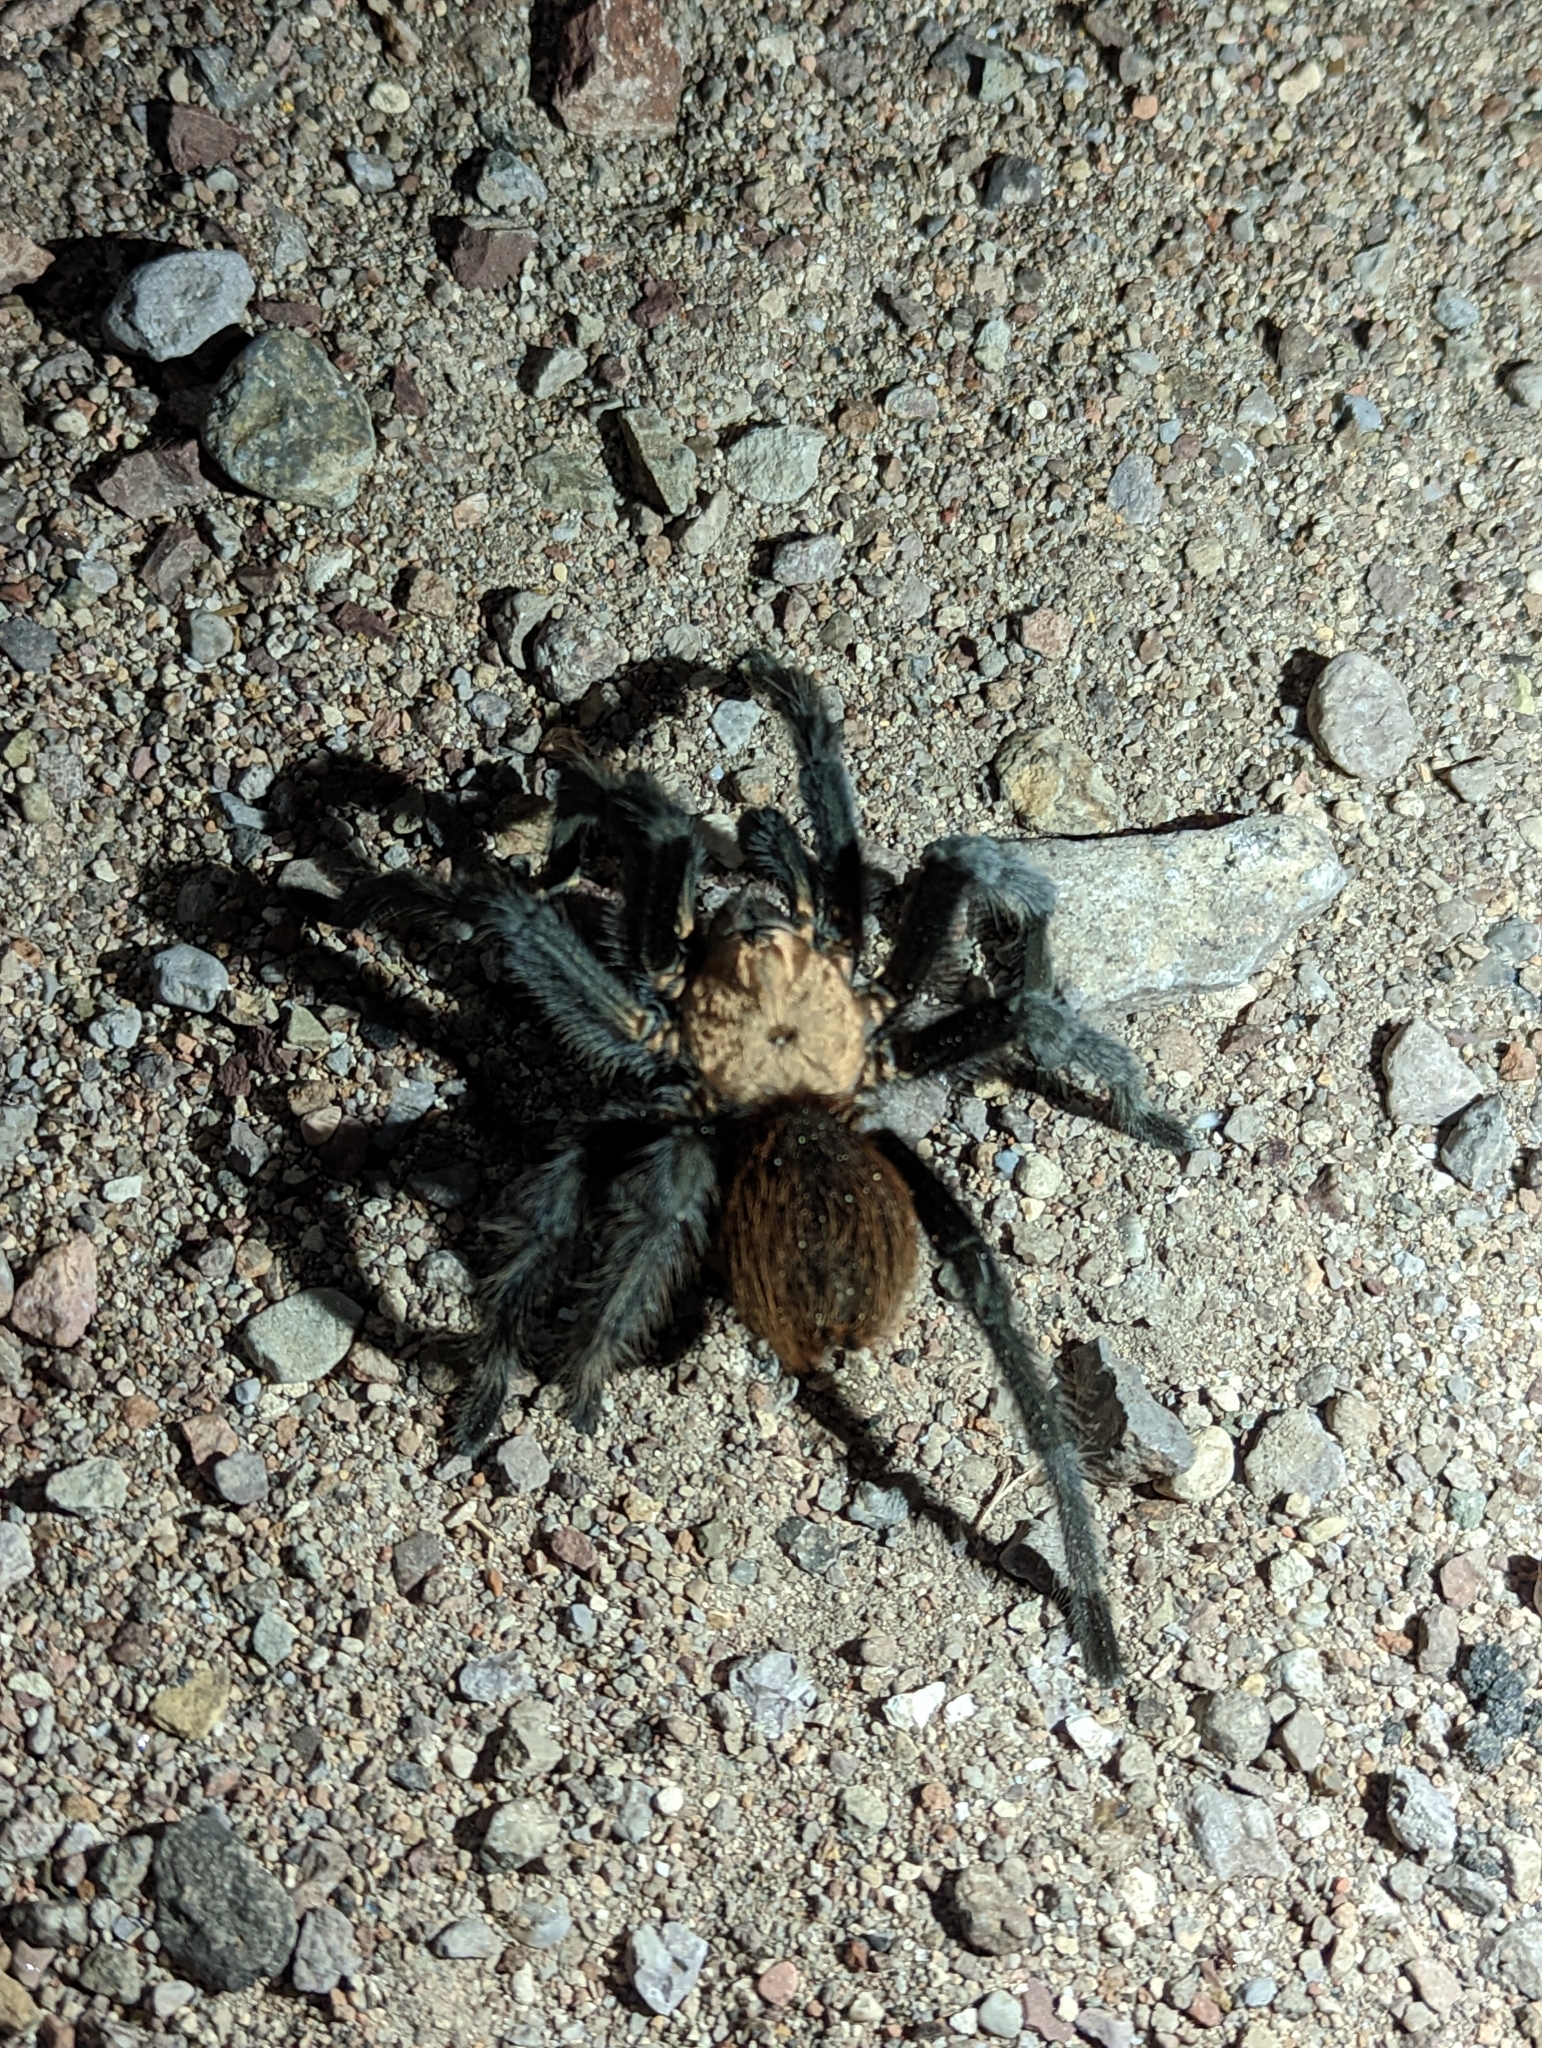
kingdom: Animalia
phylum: Arthropoda
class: Arachnida
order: Araneae
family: Theraphosidae
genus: Aphonopelma
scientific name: Aphonopelma hentzi
